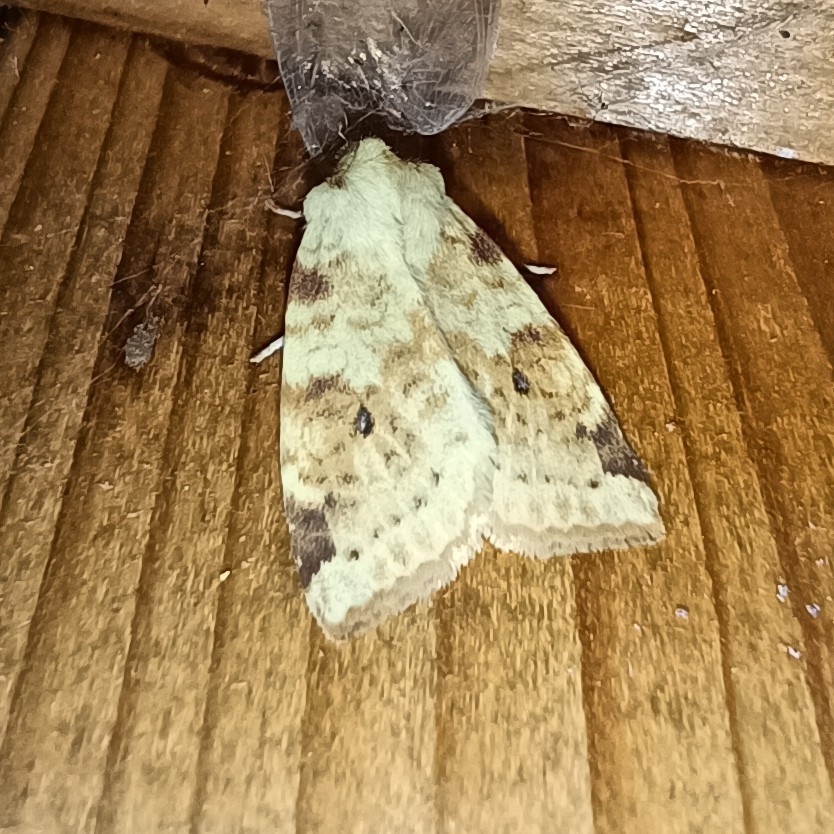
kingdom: Animalia
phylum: Arthropoda
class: Insecta
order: Lepidoptera
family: Noctuidae
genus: Xanthia
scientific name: Xanthia icteritia
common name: The sallow
